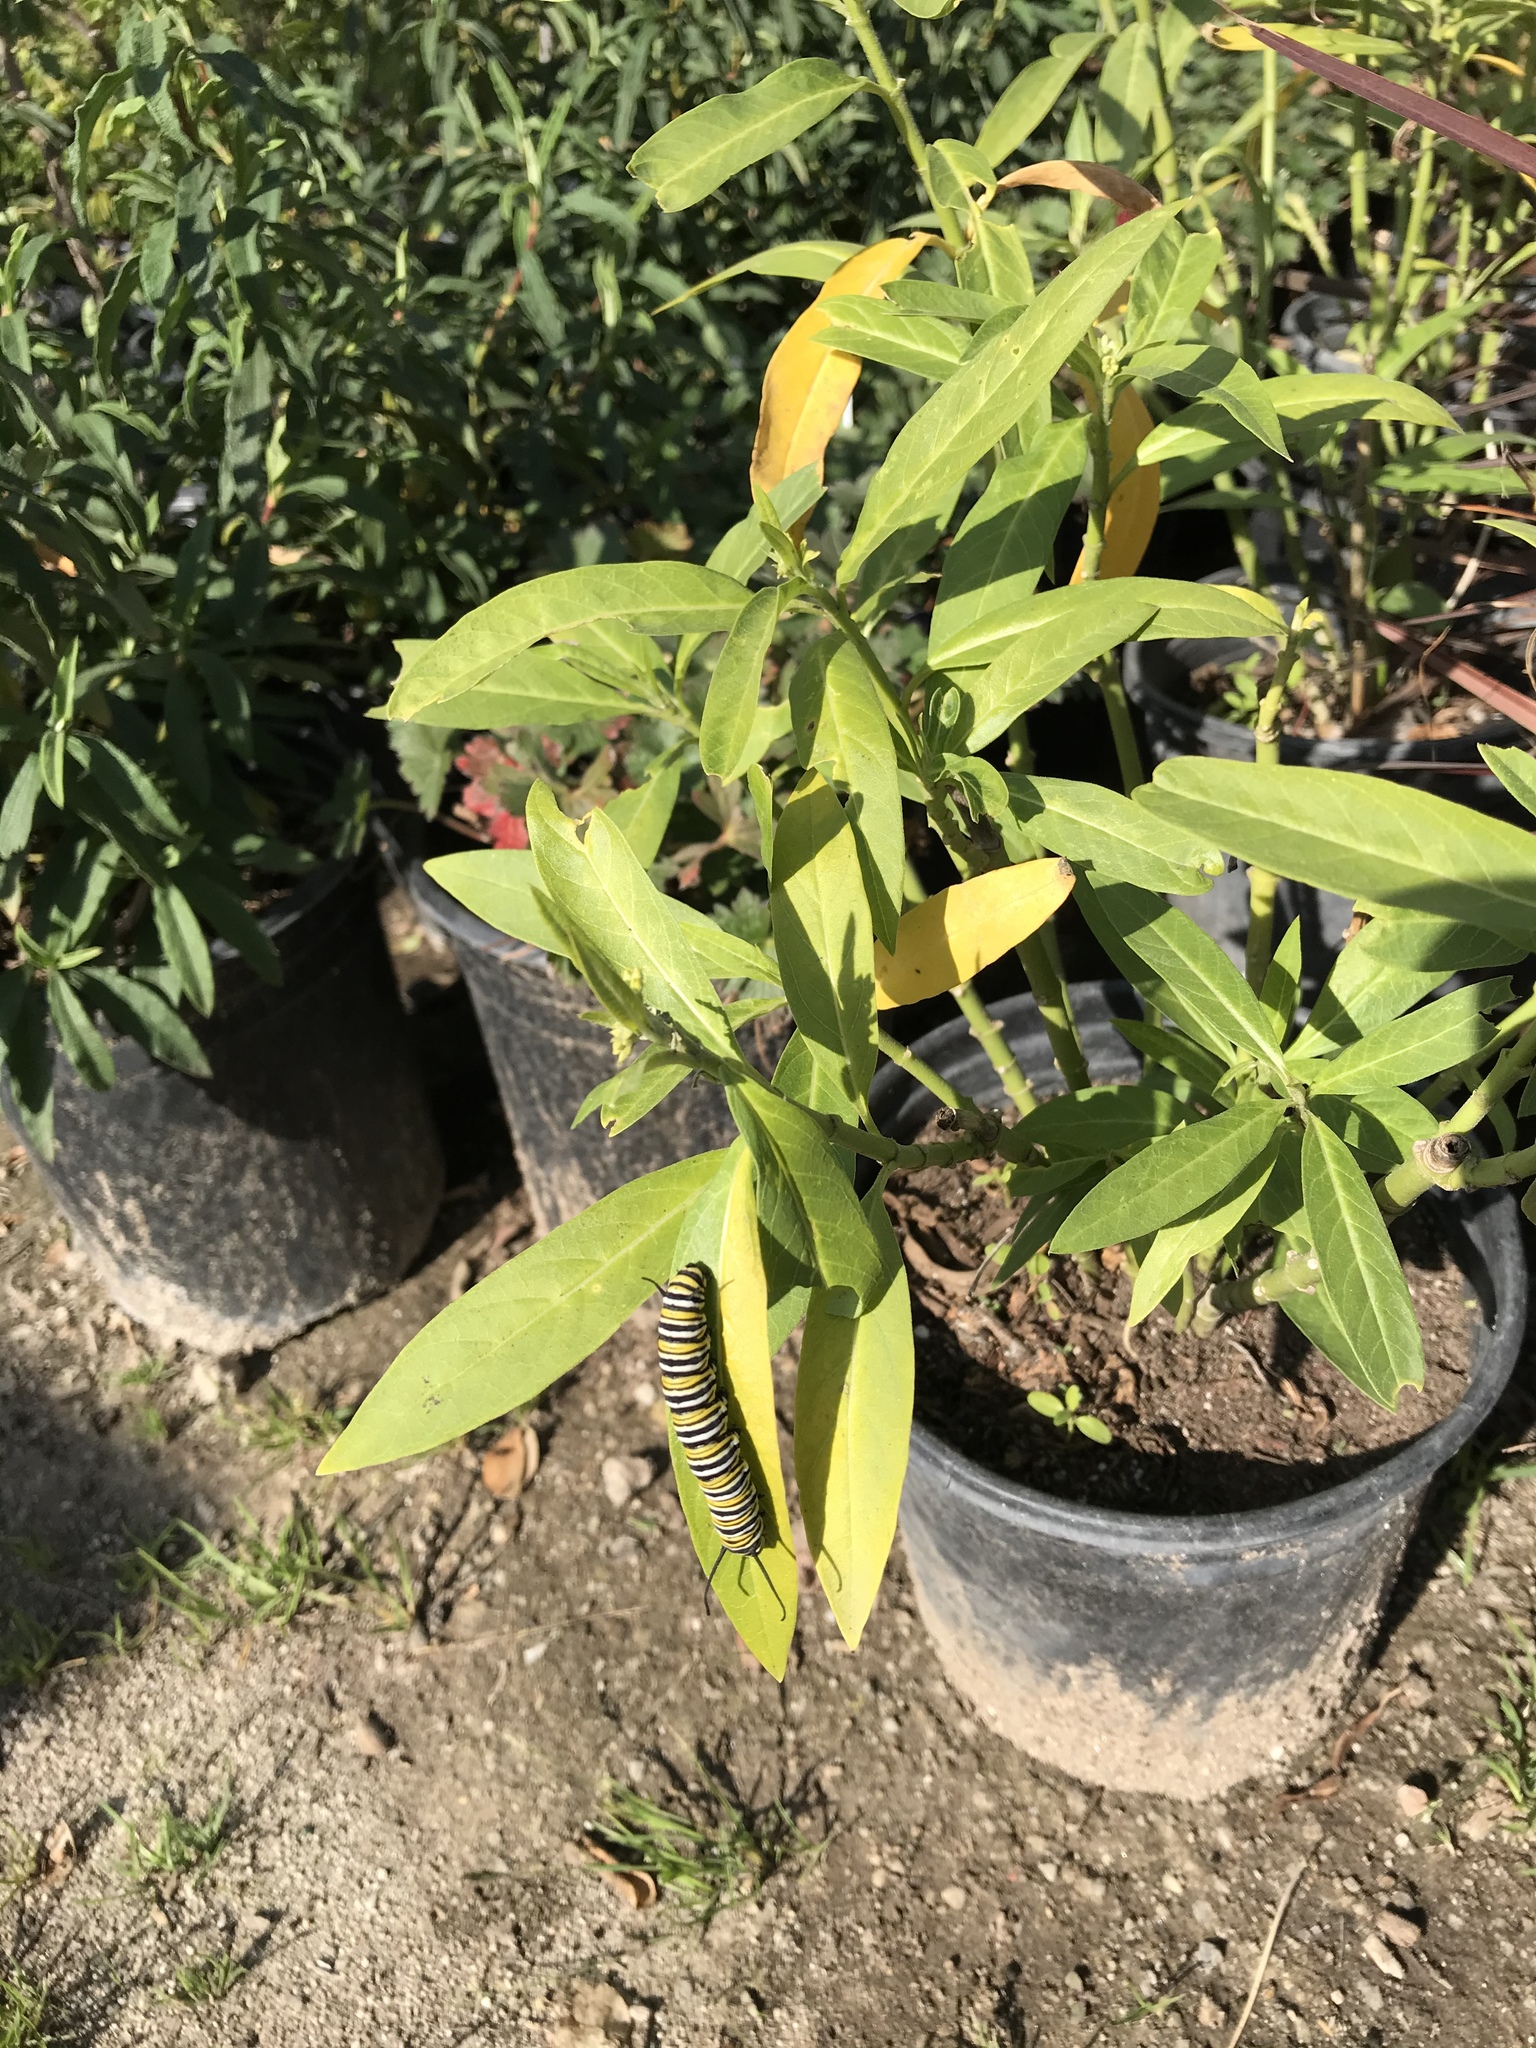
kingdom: Animalia
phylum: Arthropoda
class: Insecta
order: Lepidoptera
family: Nymphalidae
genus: Danaus
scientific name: Danaus plexippus
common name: Monarch
